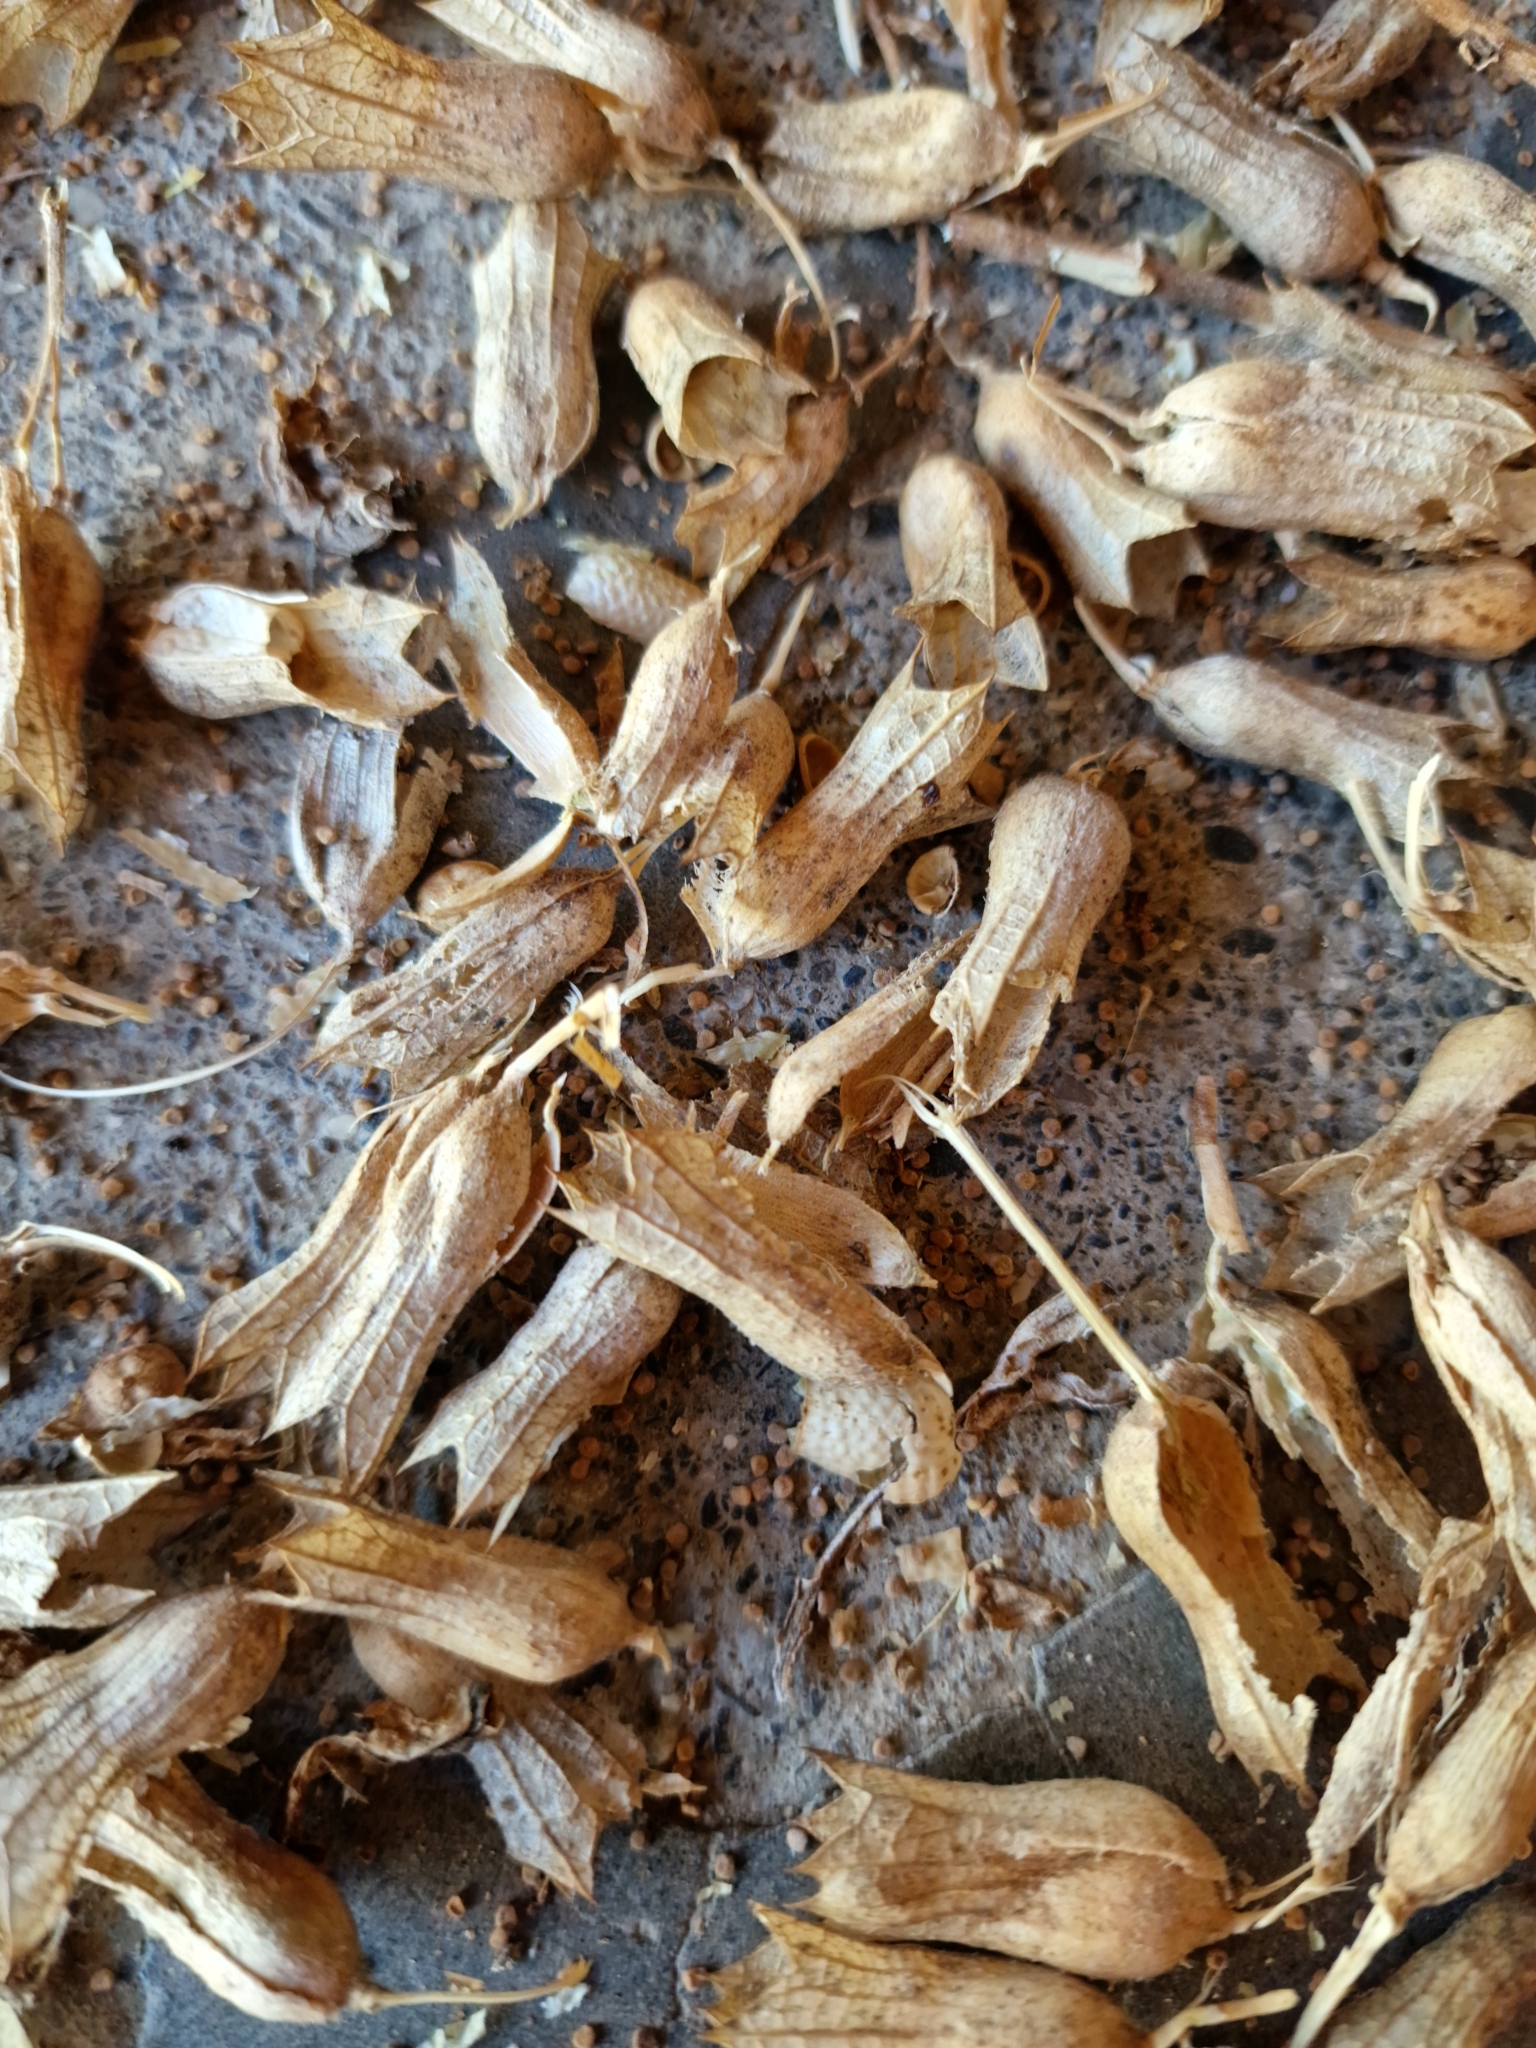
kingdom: Plantae
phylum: Tracheophyta
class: Magnoliopsida
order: Solanales
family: Solanaceae
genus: Hyoscyamus
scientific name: Hyoscyamus niger
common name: Henbane
